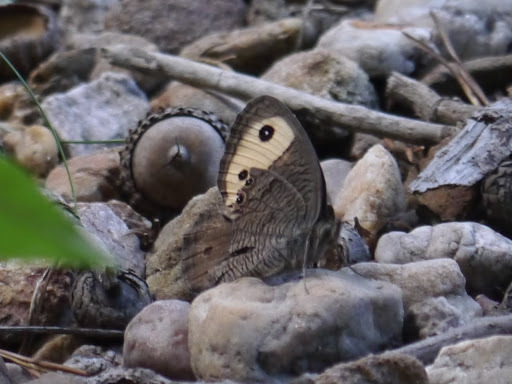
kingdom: Animalia
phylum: Arthropoda
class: Insecta
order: Lepidoptera
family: Nymphalidae
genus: Cercyonis
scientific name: Cercyonis pegala
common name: Common wood-nymph
